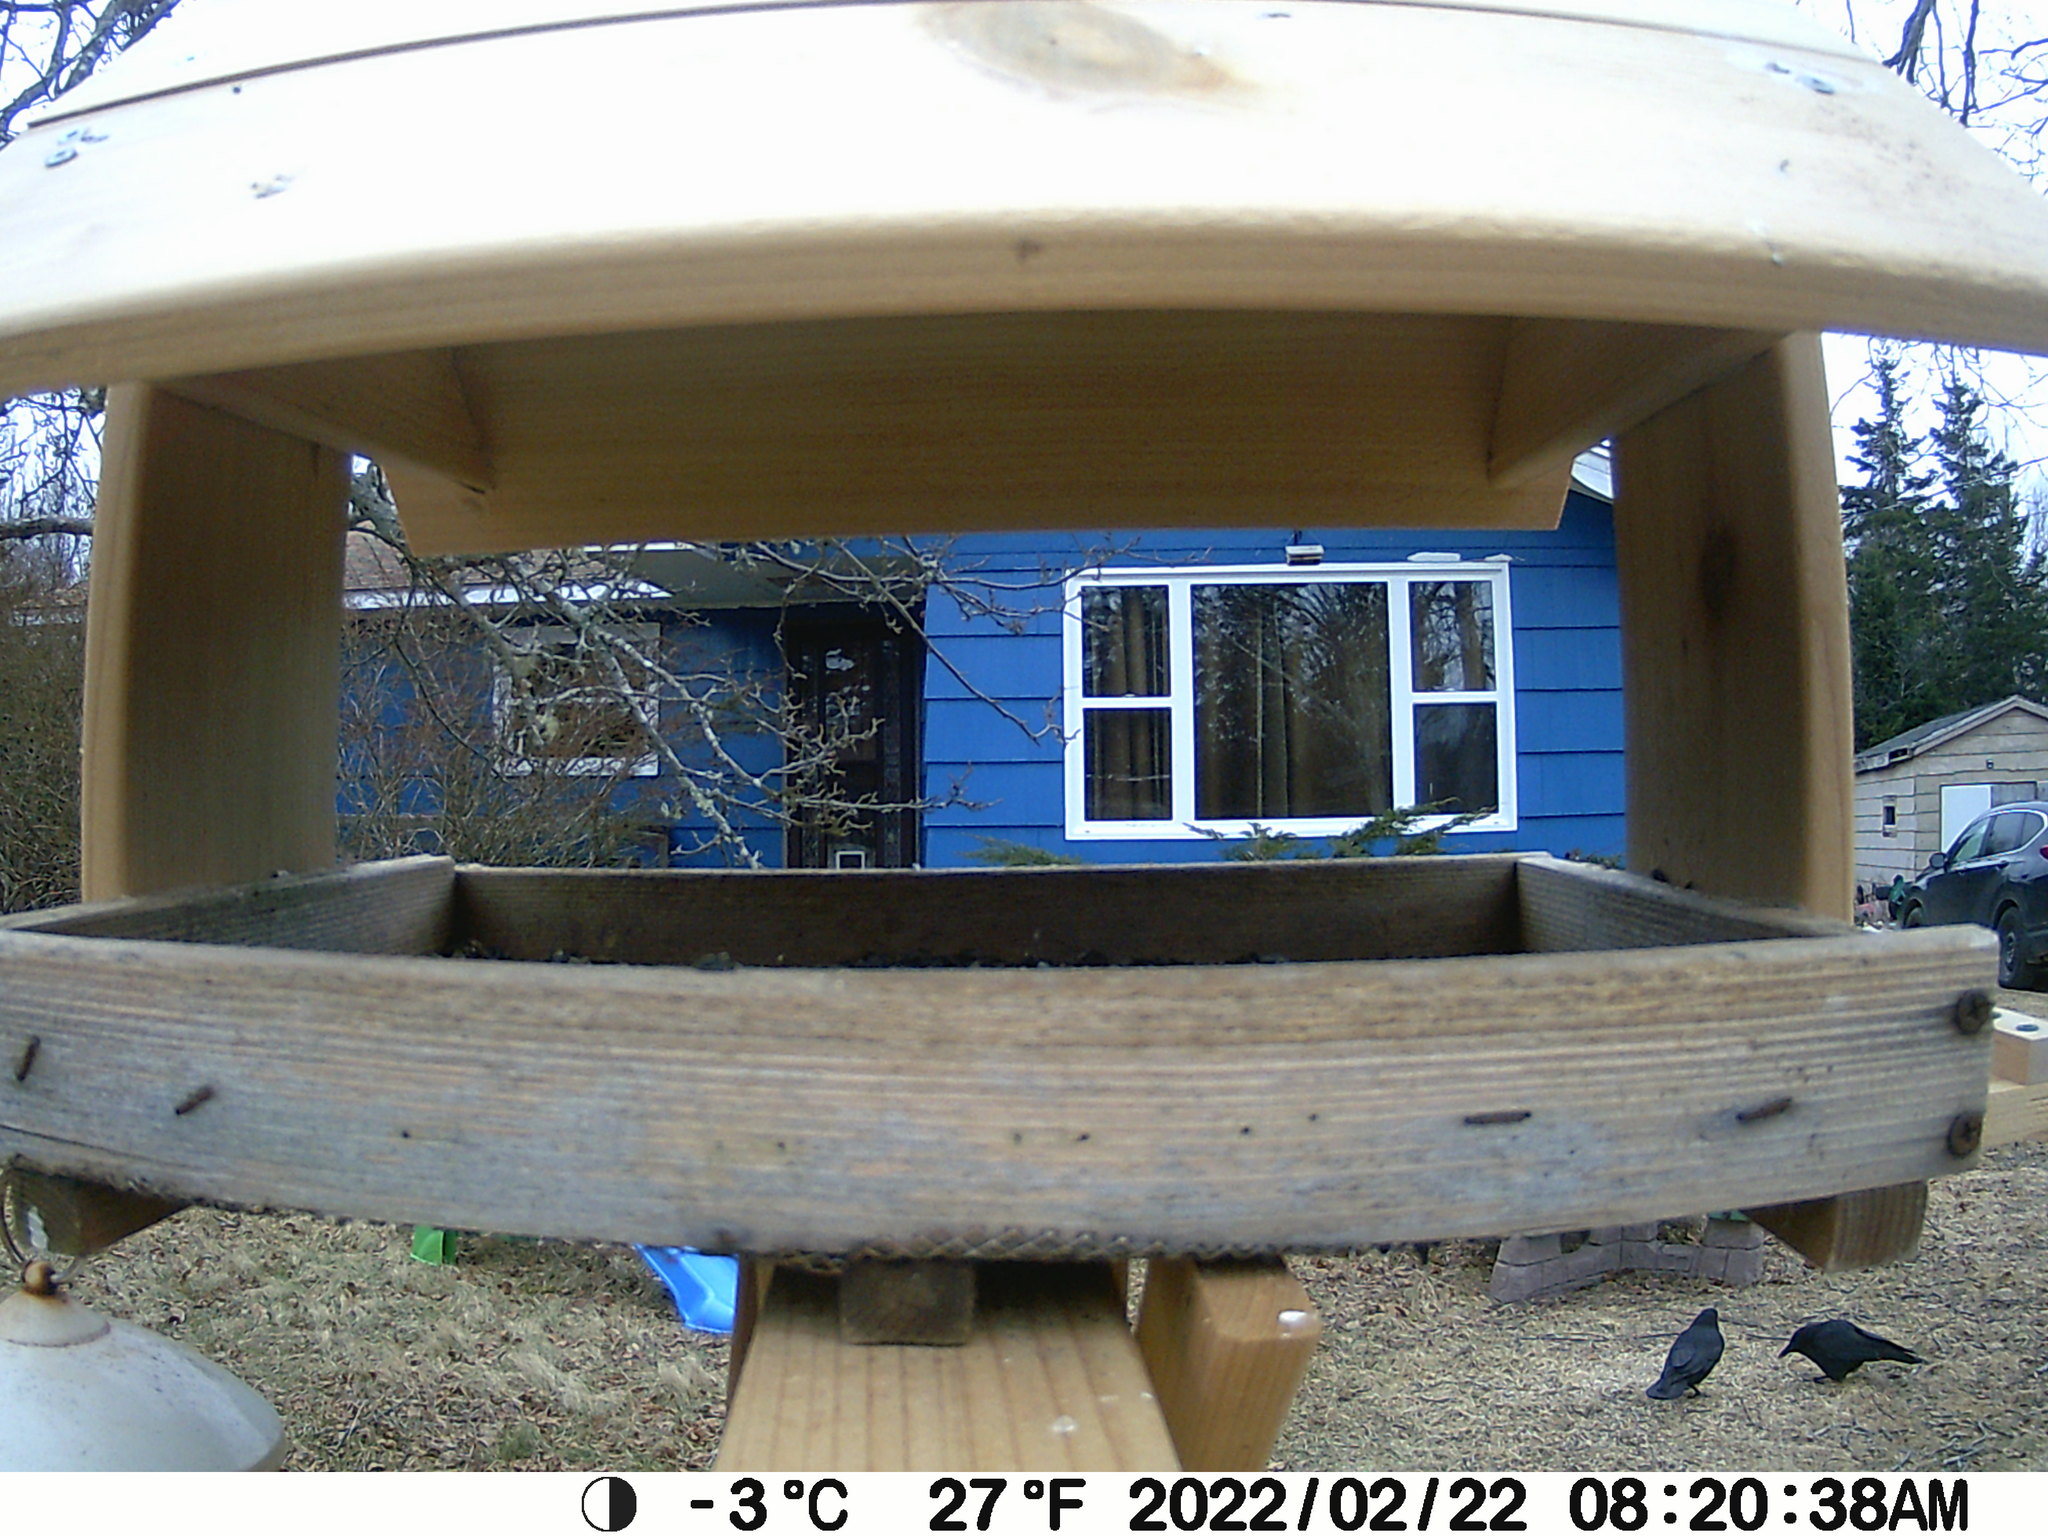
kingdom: Animalia
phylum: Chordata
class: Aves
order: Passeriformes
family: Corvidae
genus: Corvus
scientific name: Corvus brachyrhynchos
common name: American crow
